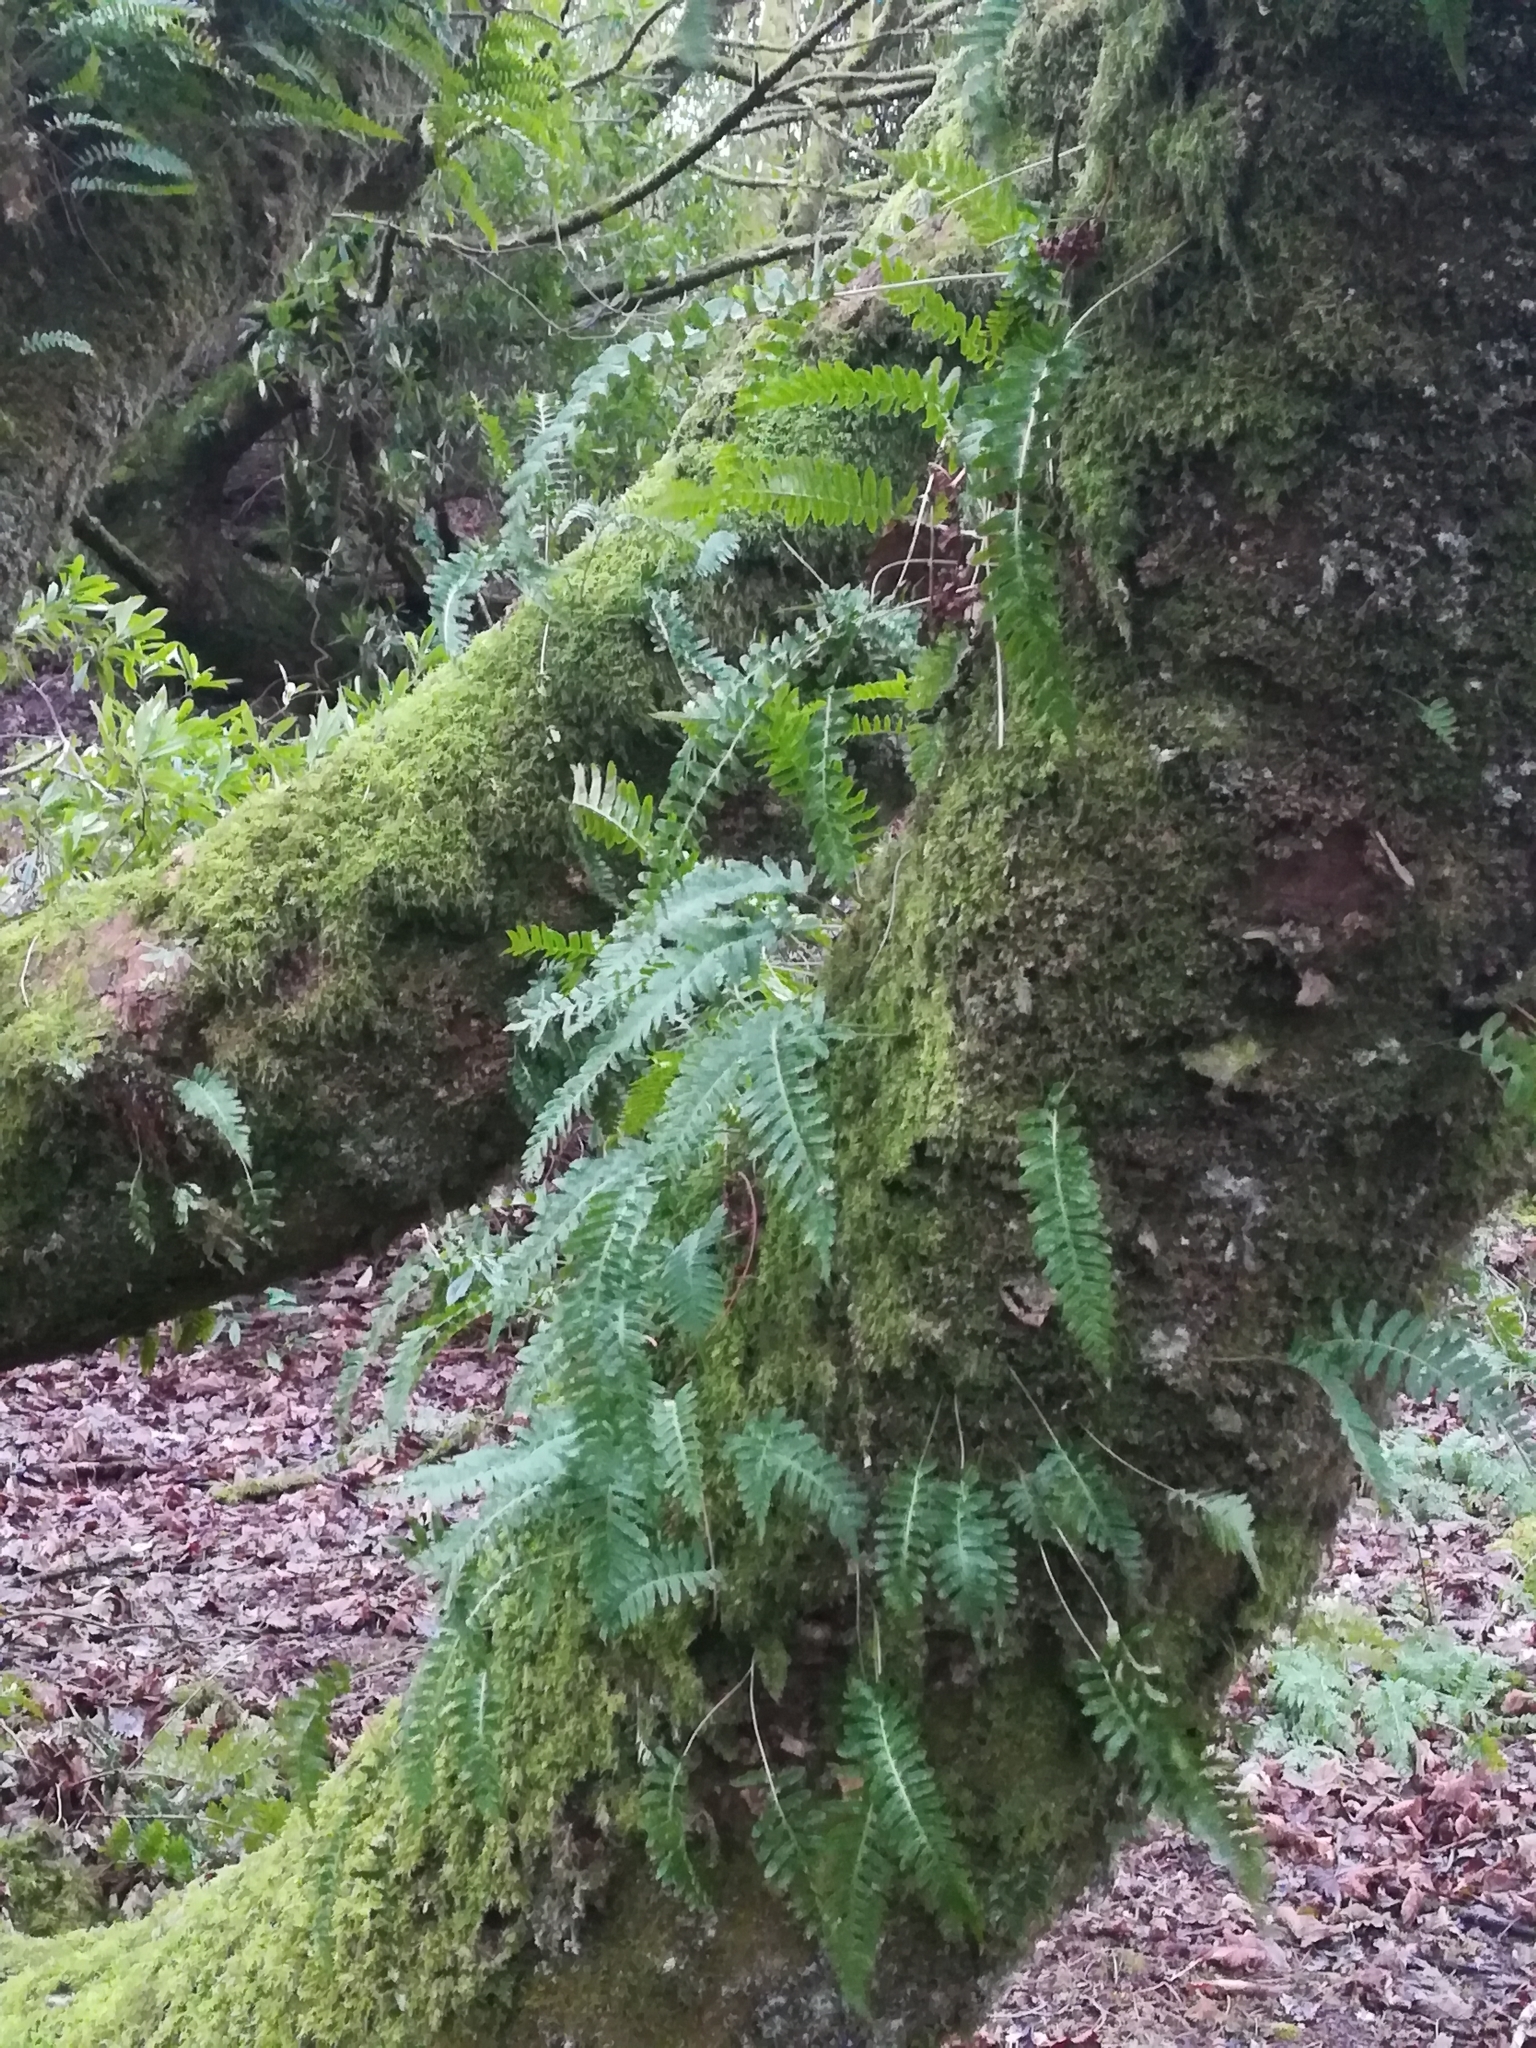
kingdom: Plantae
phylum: Tracheophyta
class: Polypodiopsida
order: Polypodiales
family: Polypodiaceae
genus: Polypodium
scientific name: Polypodium vulgare
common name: Common polypody
